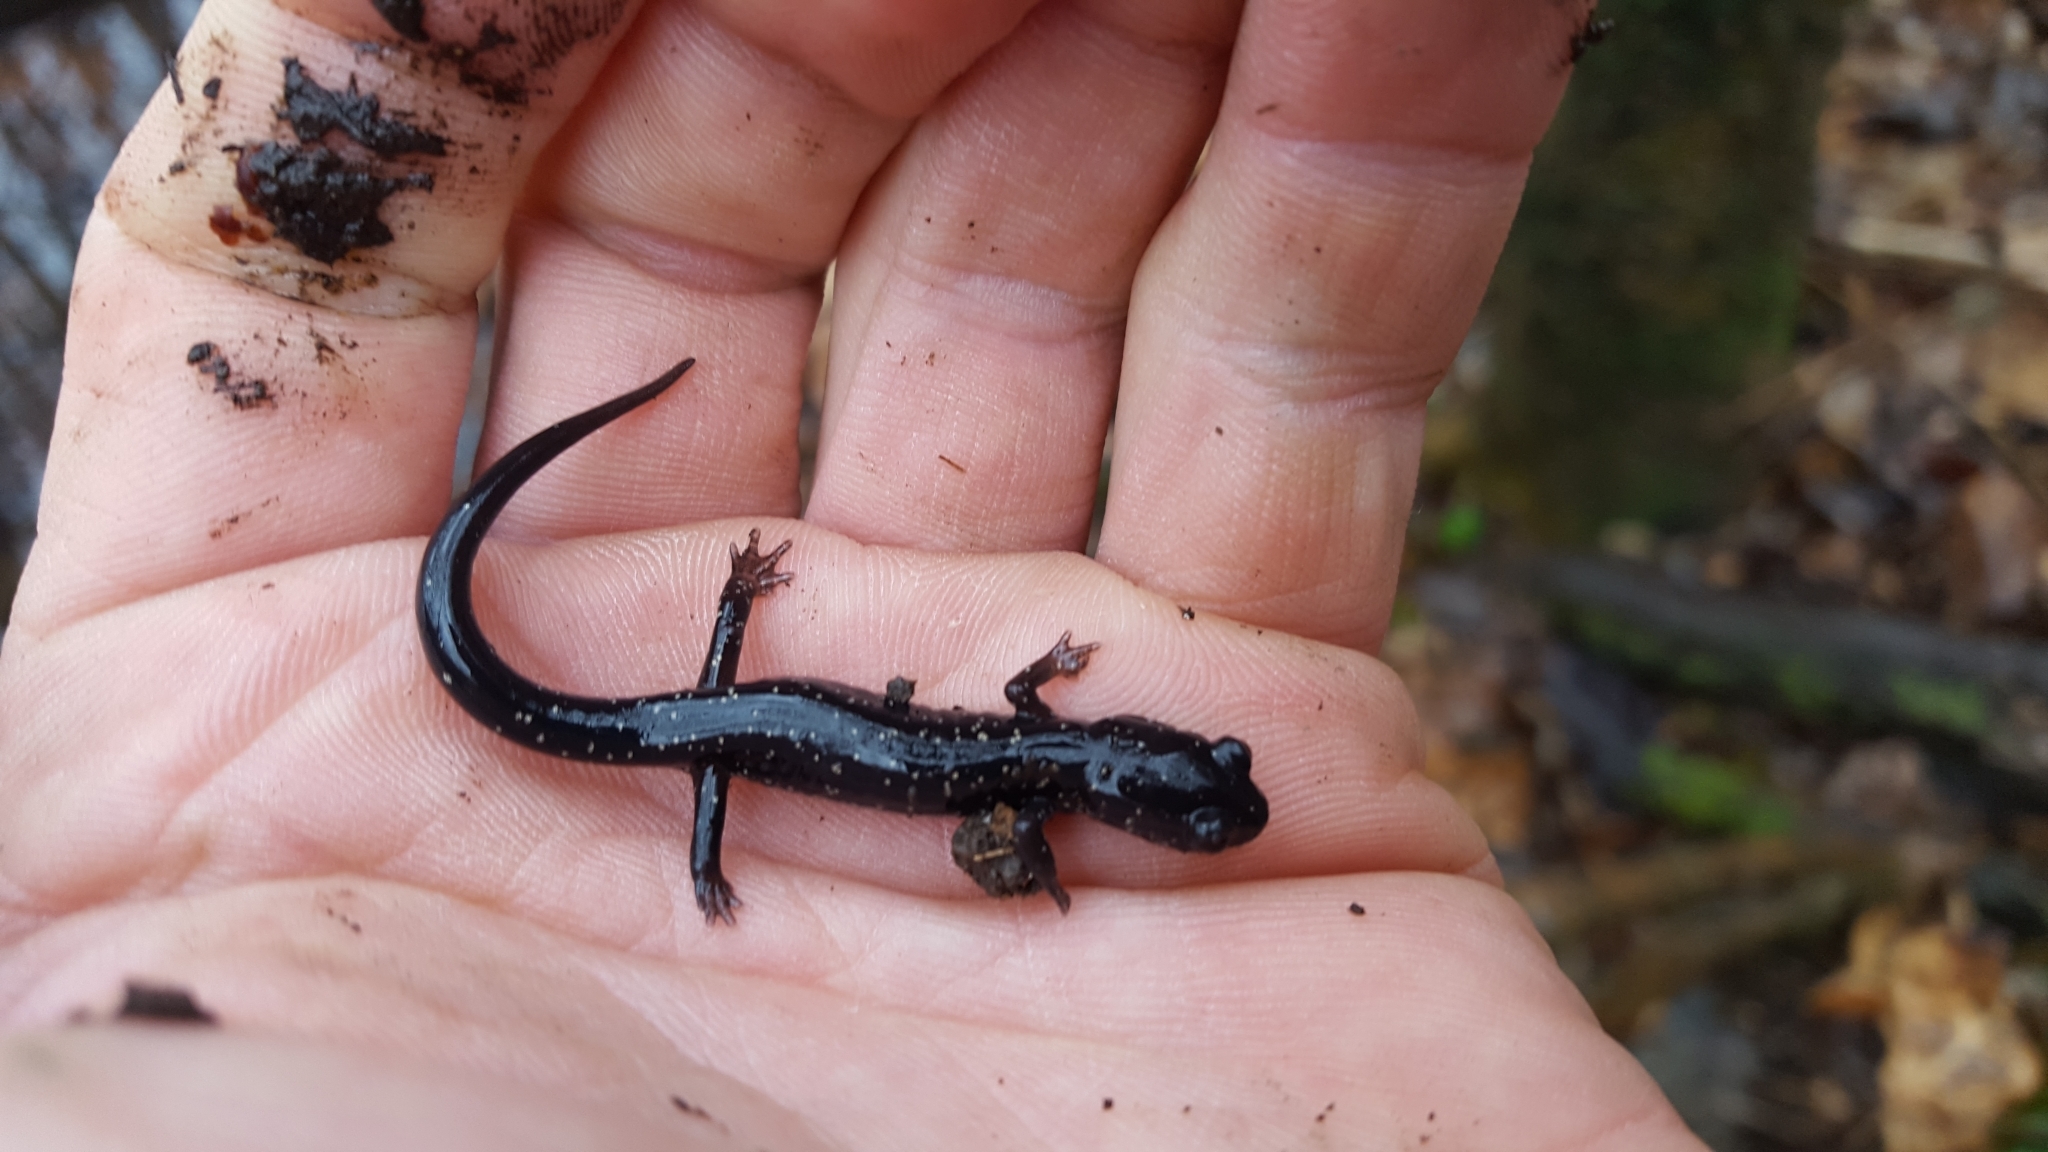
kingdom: Animalia
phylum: Chordata
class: Amphibia
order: Caudata
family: Plethodontidae
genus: Plethodon
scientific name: Plethodon albagula
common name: Western slimy salamander
